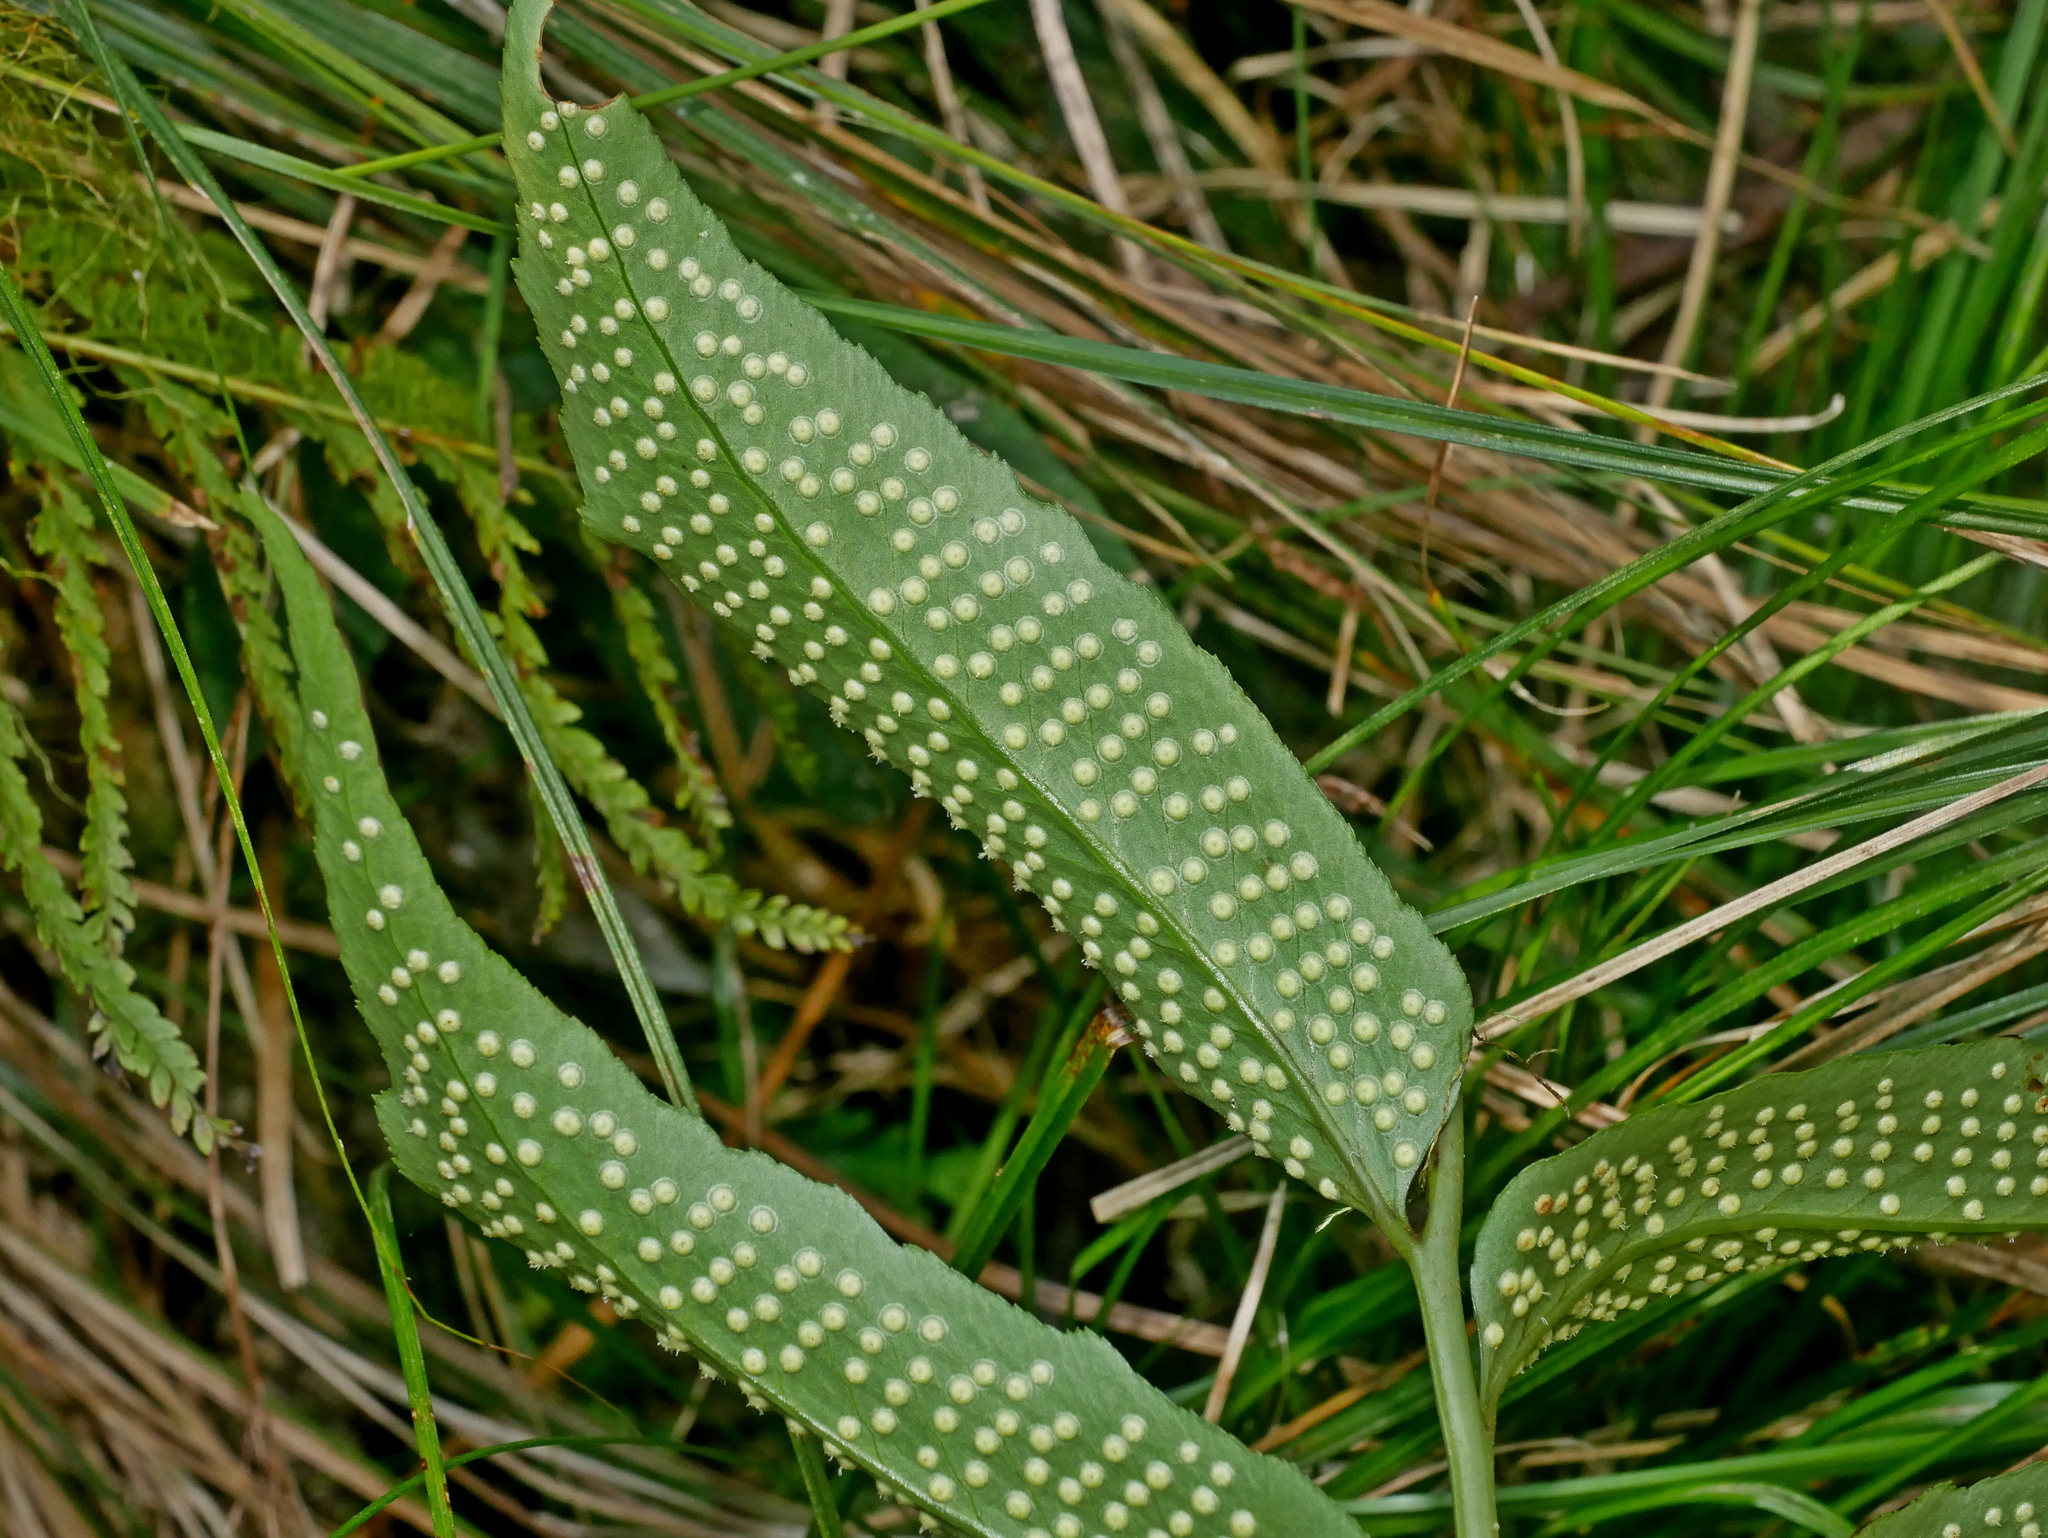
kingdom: Plantae
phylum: Tracheophyta
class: Polypodiopsida
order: Polypodiales
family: Dryopteridaceae
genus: Cyrtomium
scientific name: Cyrtomium taiwanianum
